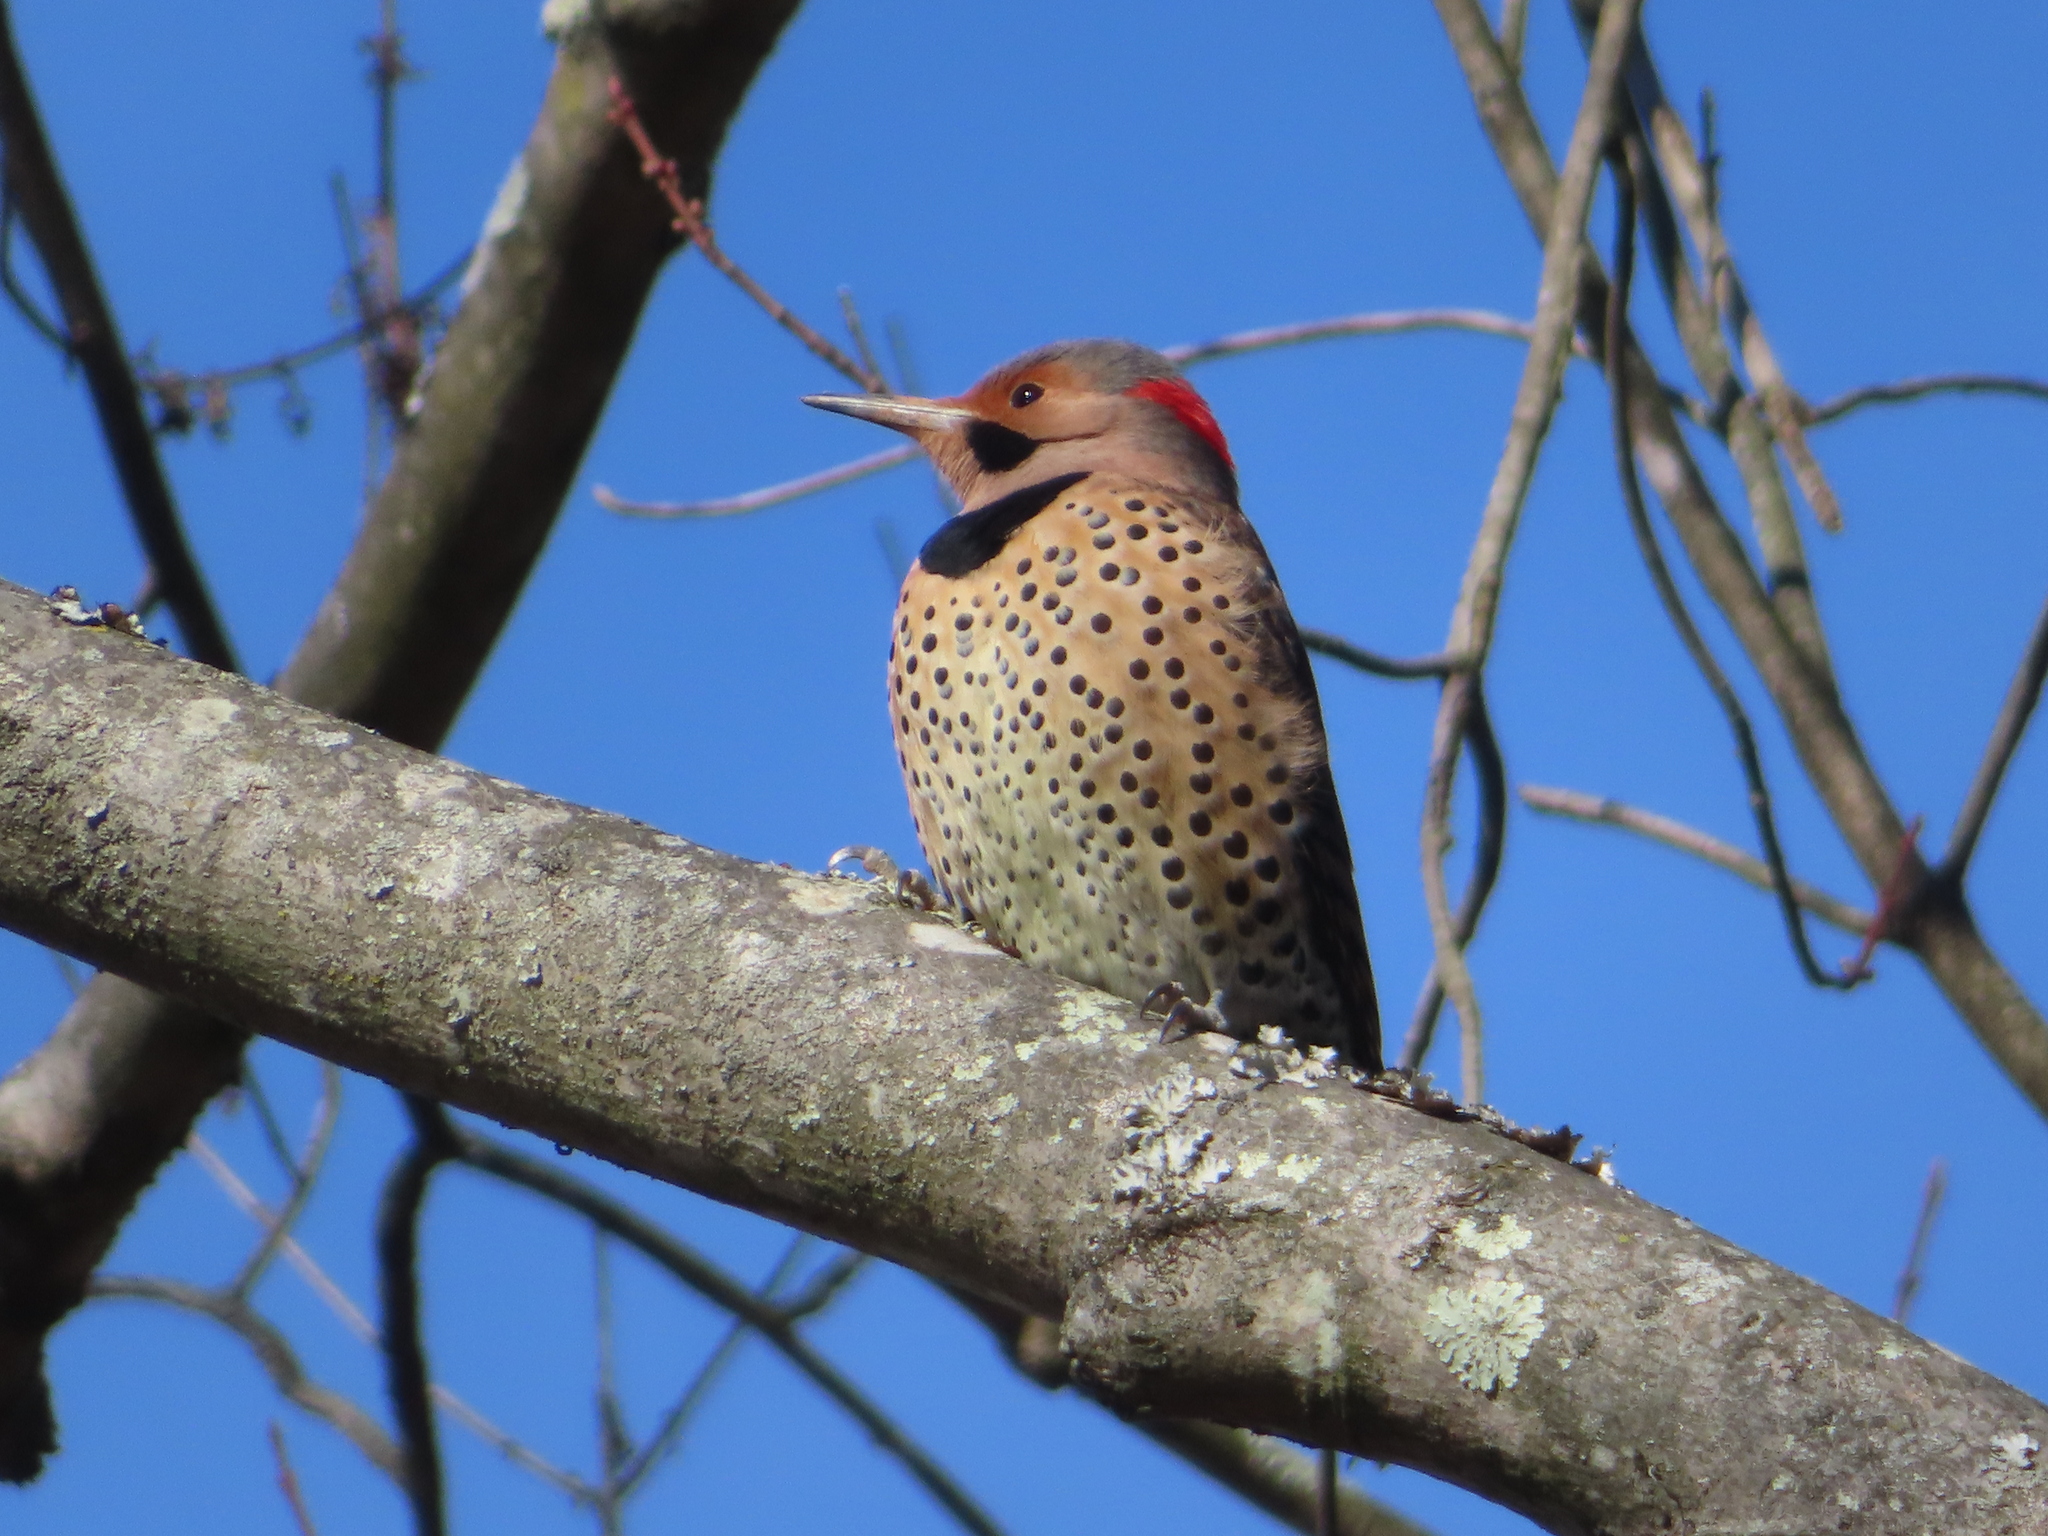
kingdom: Animalia
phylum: Chordata
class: Aves
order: Piciformes
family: Picidae
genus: Colaptes
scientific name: Colaptes auratus
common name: Northern flicker
